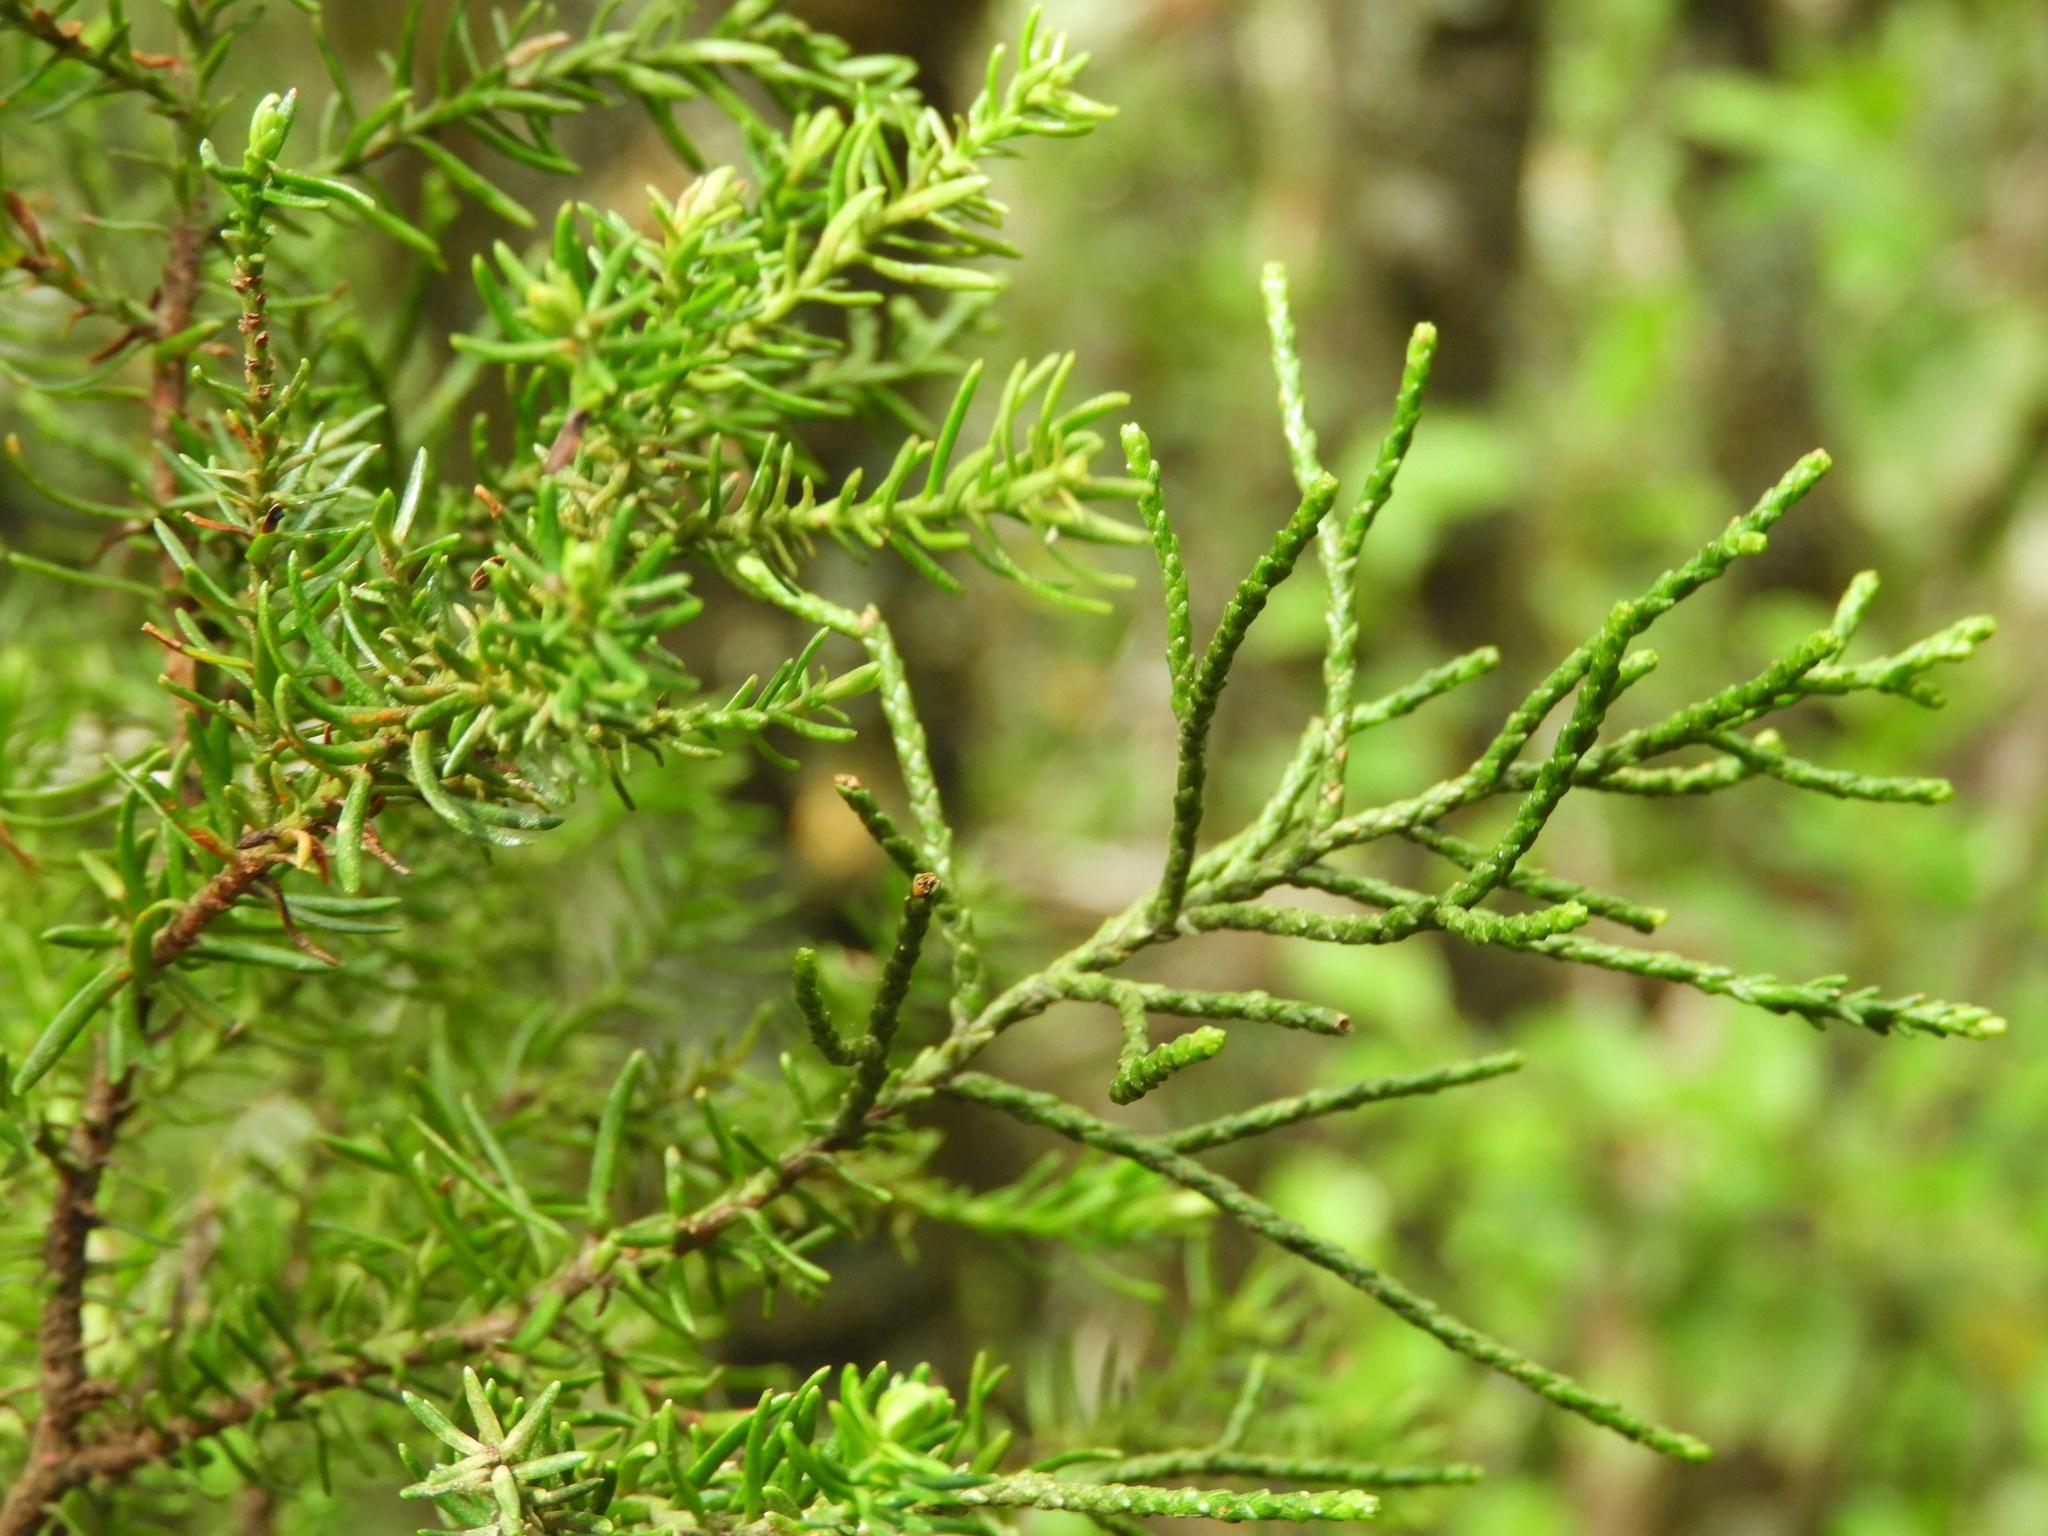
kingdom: Plantae
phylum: Tracheophyta
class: Pinopsida
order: Pinales
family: Podocarpaceae
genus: Halocarpus
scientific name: Halocarpus bidwillii
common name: Bog pine
